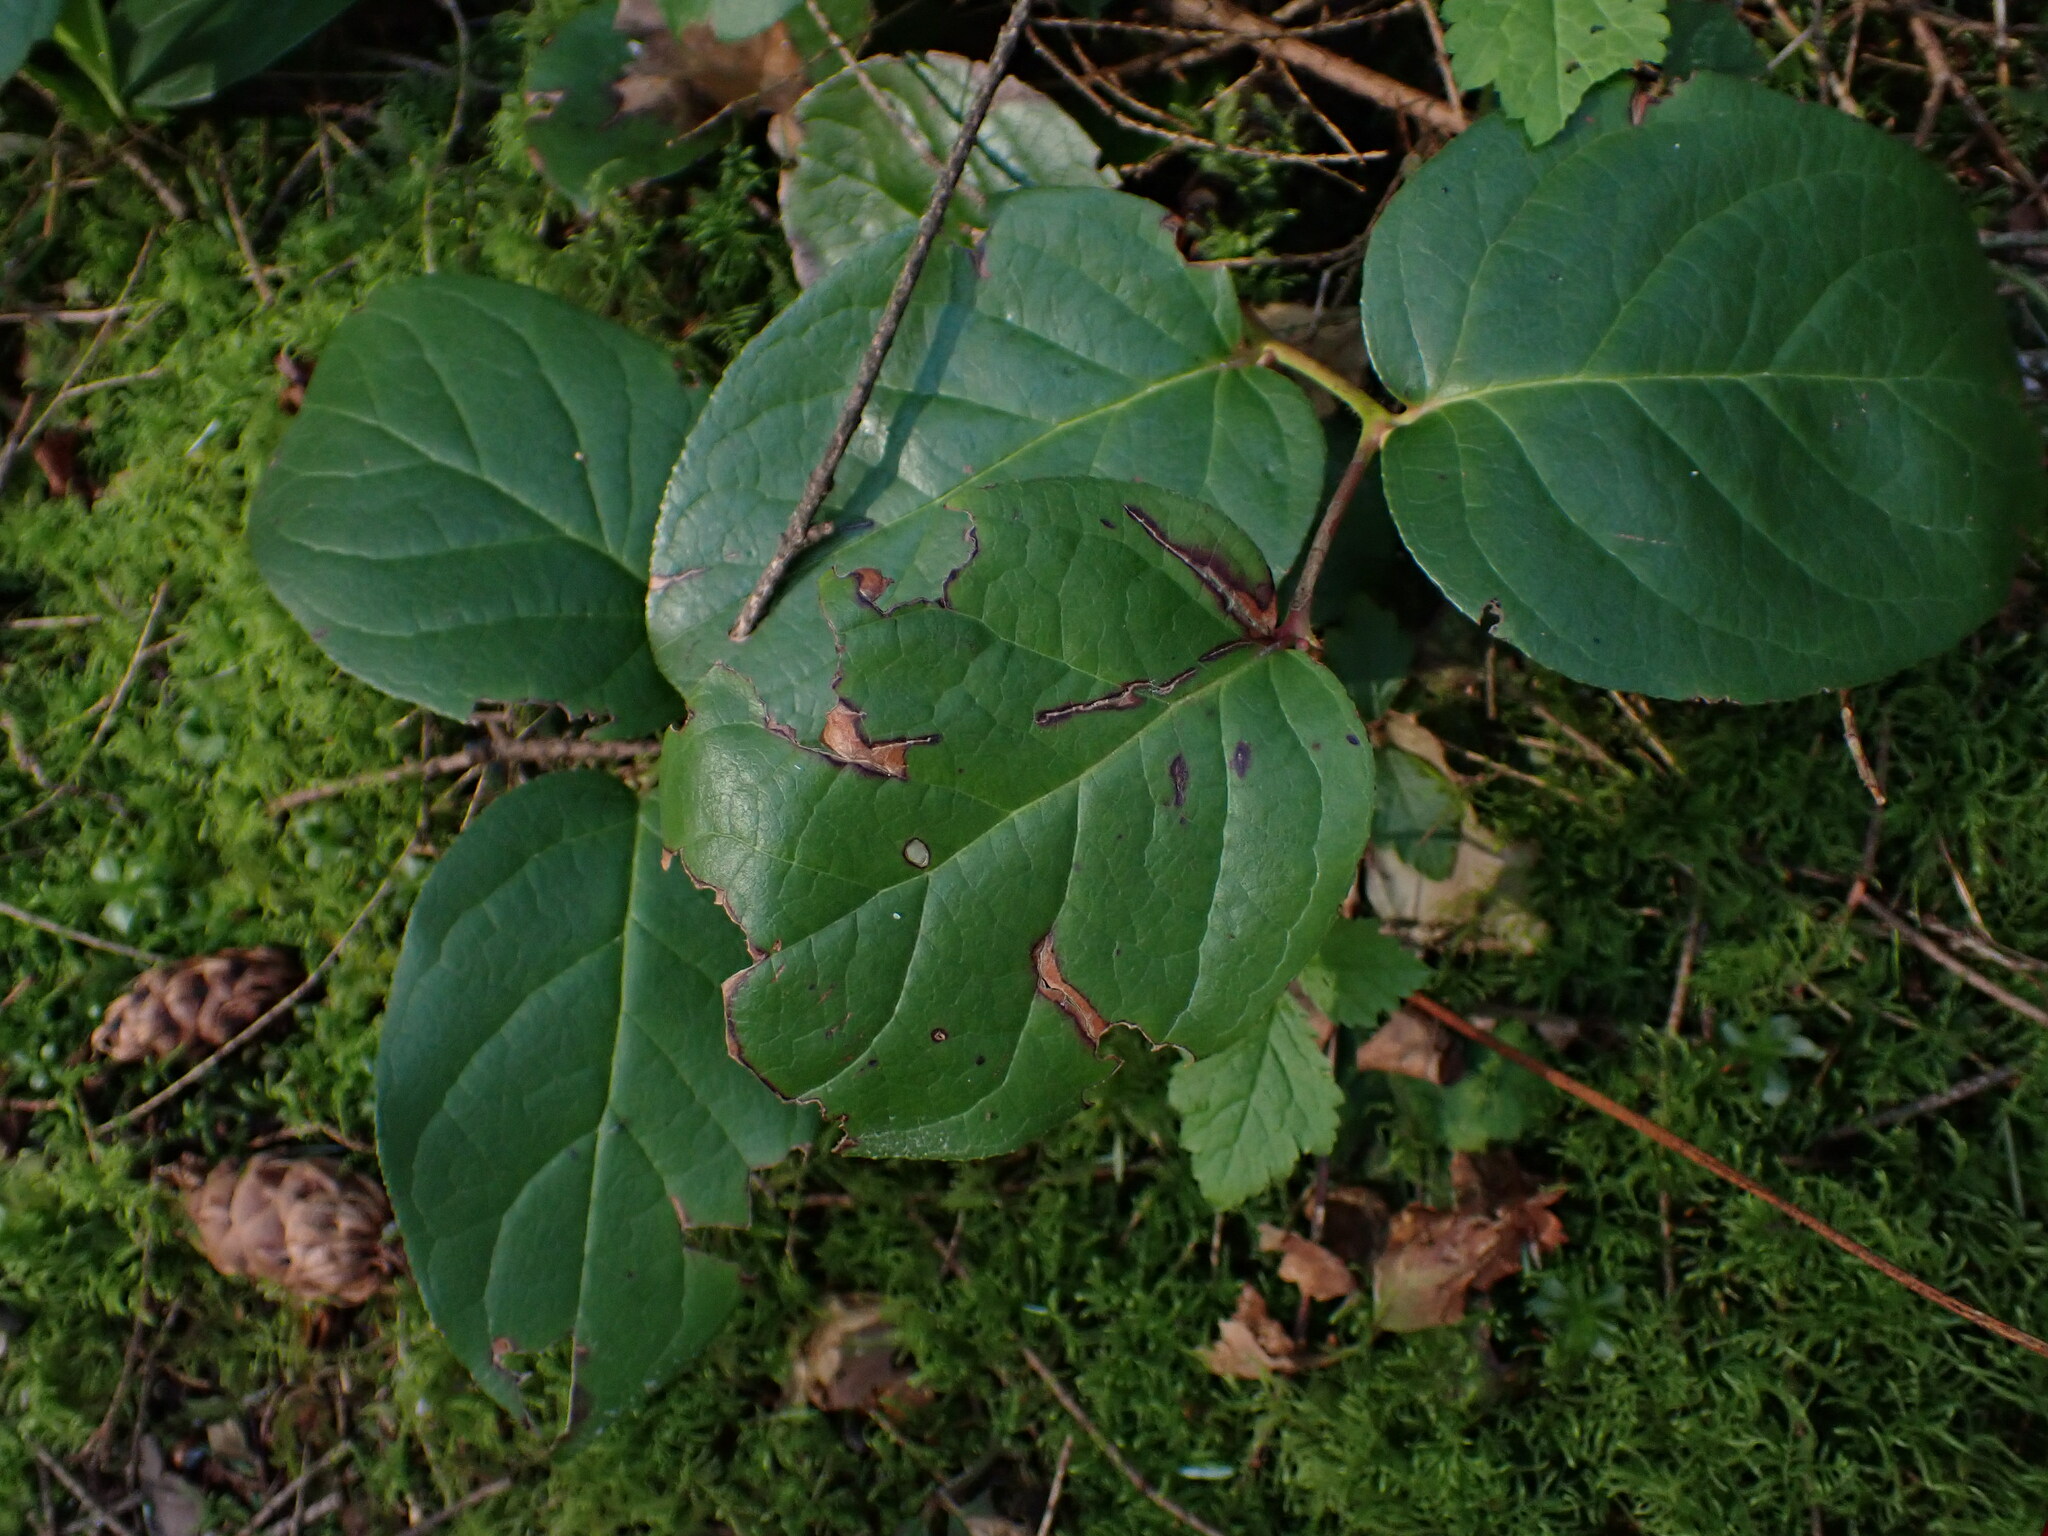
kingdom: Plantae
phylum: Tracheophyta
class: Magnoliopsida
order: Ericales
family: Ericaceae
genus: Gaultheria
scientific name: Gaultheria shallon
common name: Shallon
